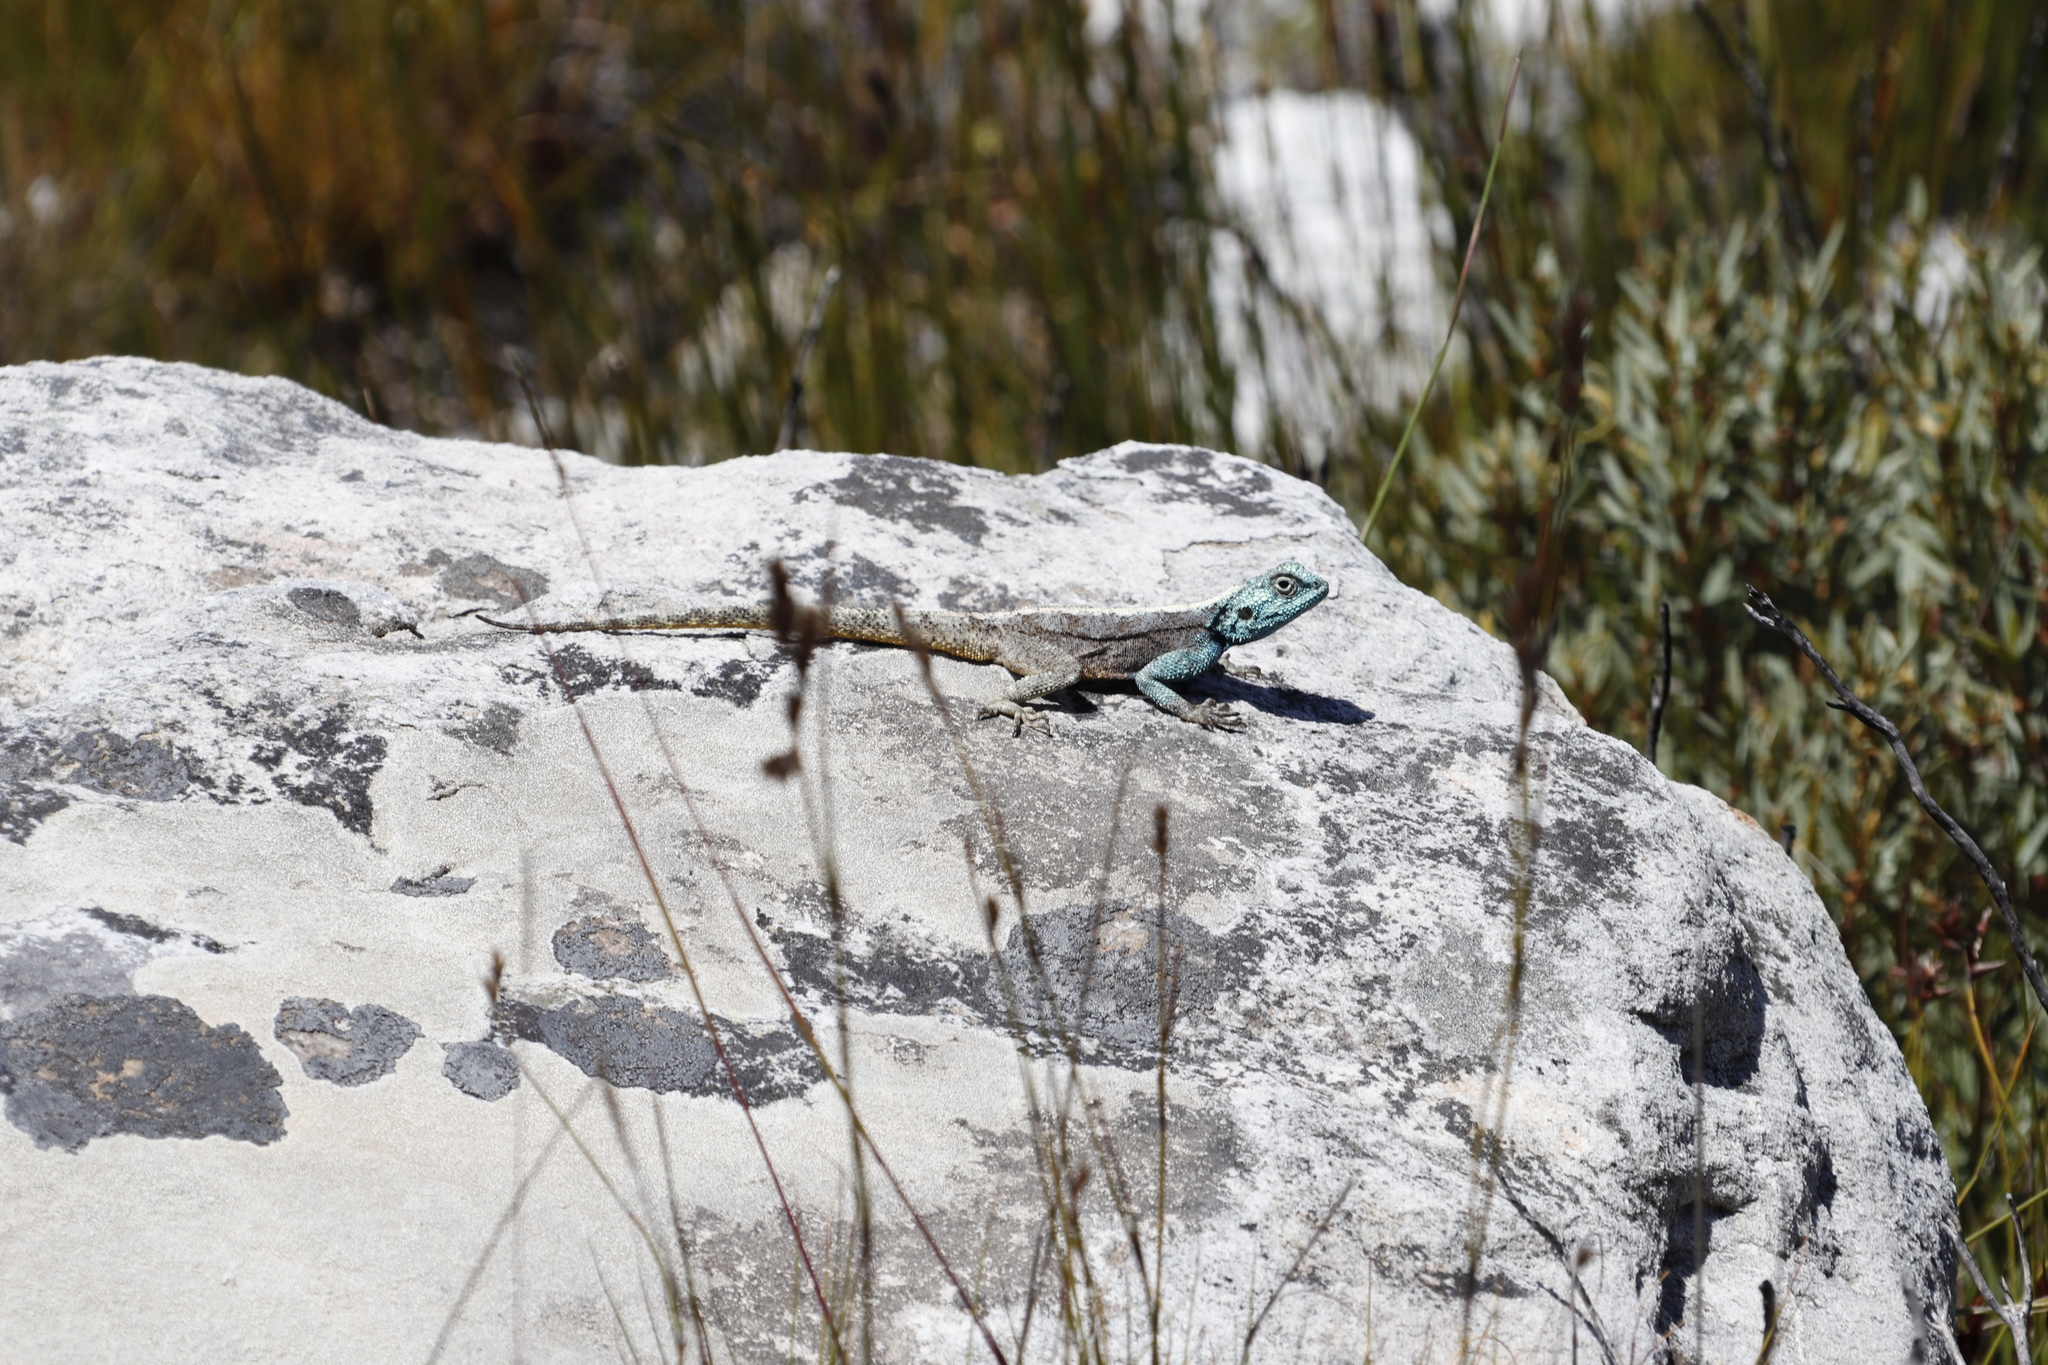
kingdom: Animalia
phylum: Chordata
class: Squamata
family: Agamidae
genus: Agama
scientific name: Agama atra
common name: Southern african rock agama
